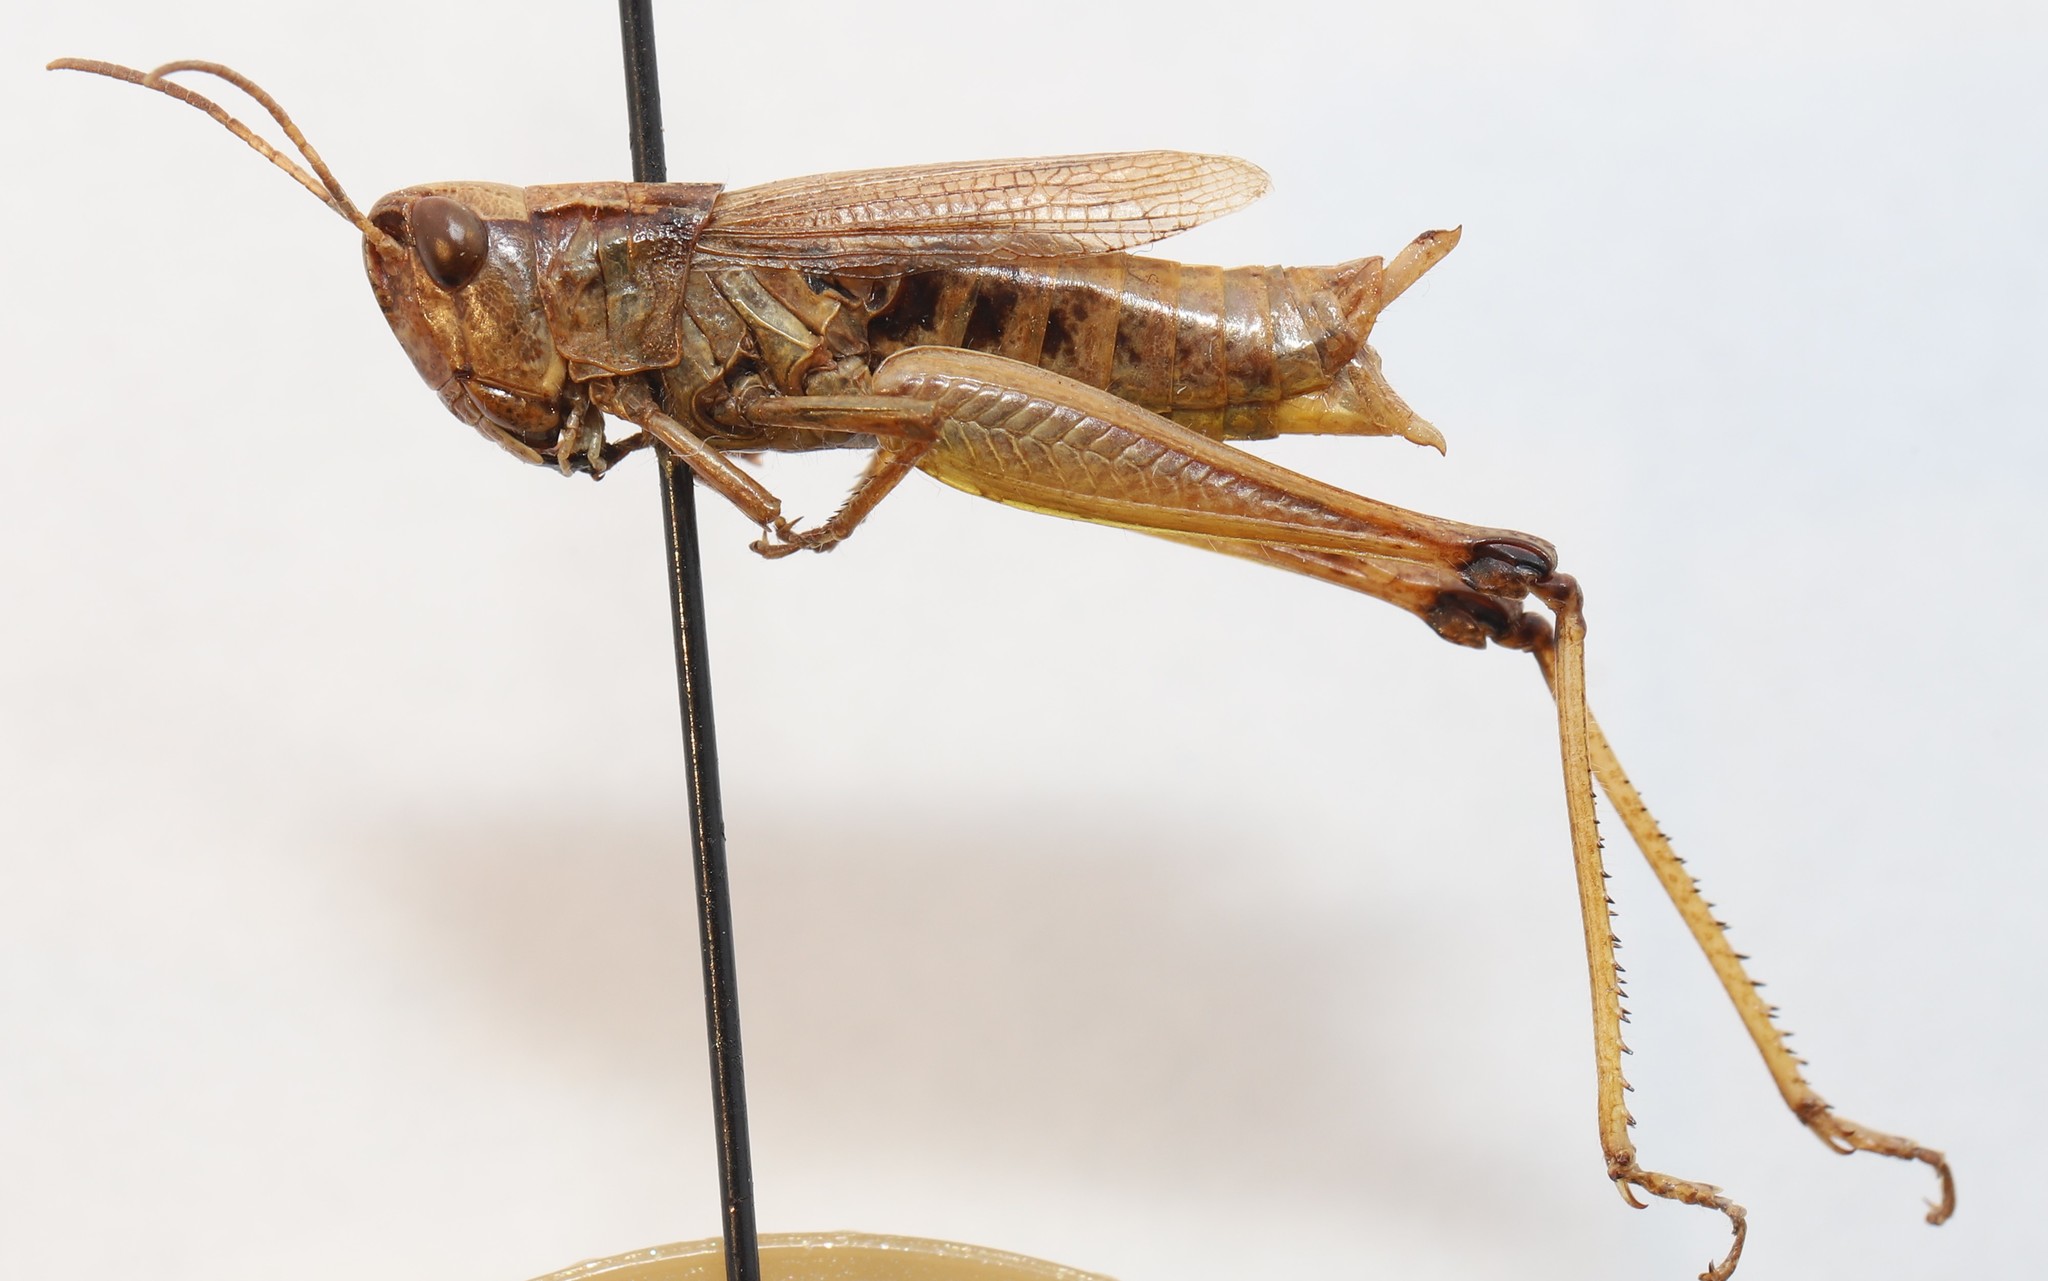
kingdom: Animalia
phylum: Arthropoda
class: Insecta
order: Orthoptera
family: Acrididae
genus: Pseudochorthippus
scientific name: Pseudochorthippus curtipennis
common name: Marsh meadow grasshopper
